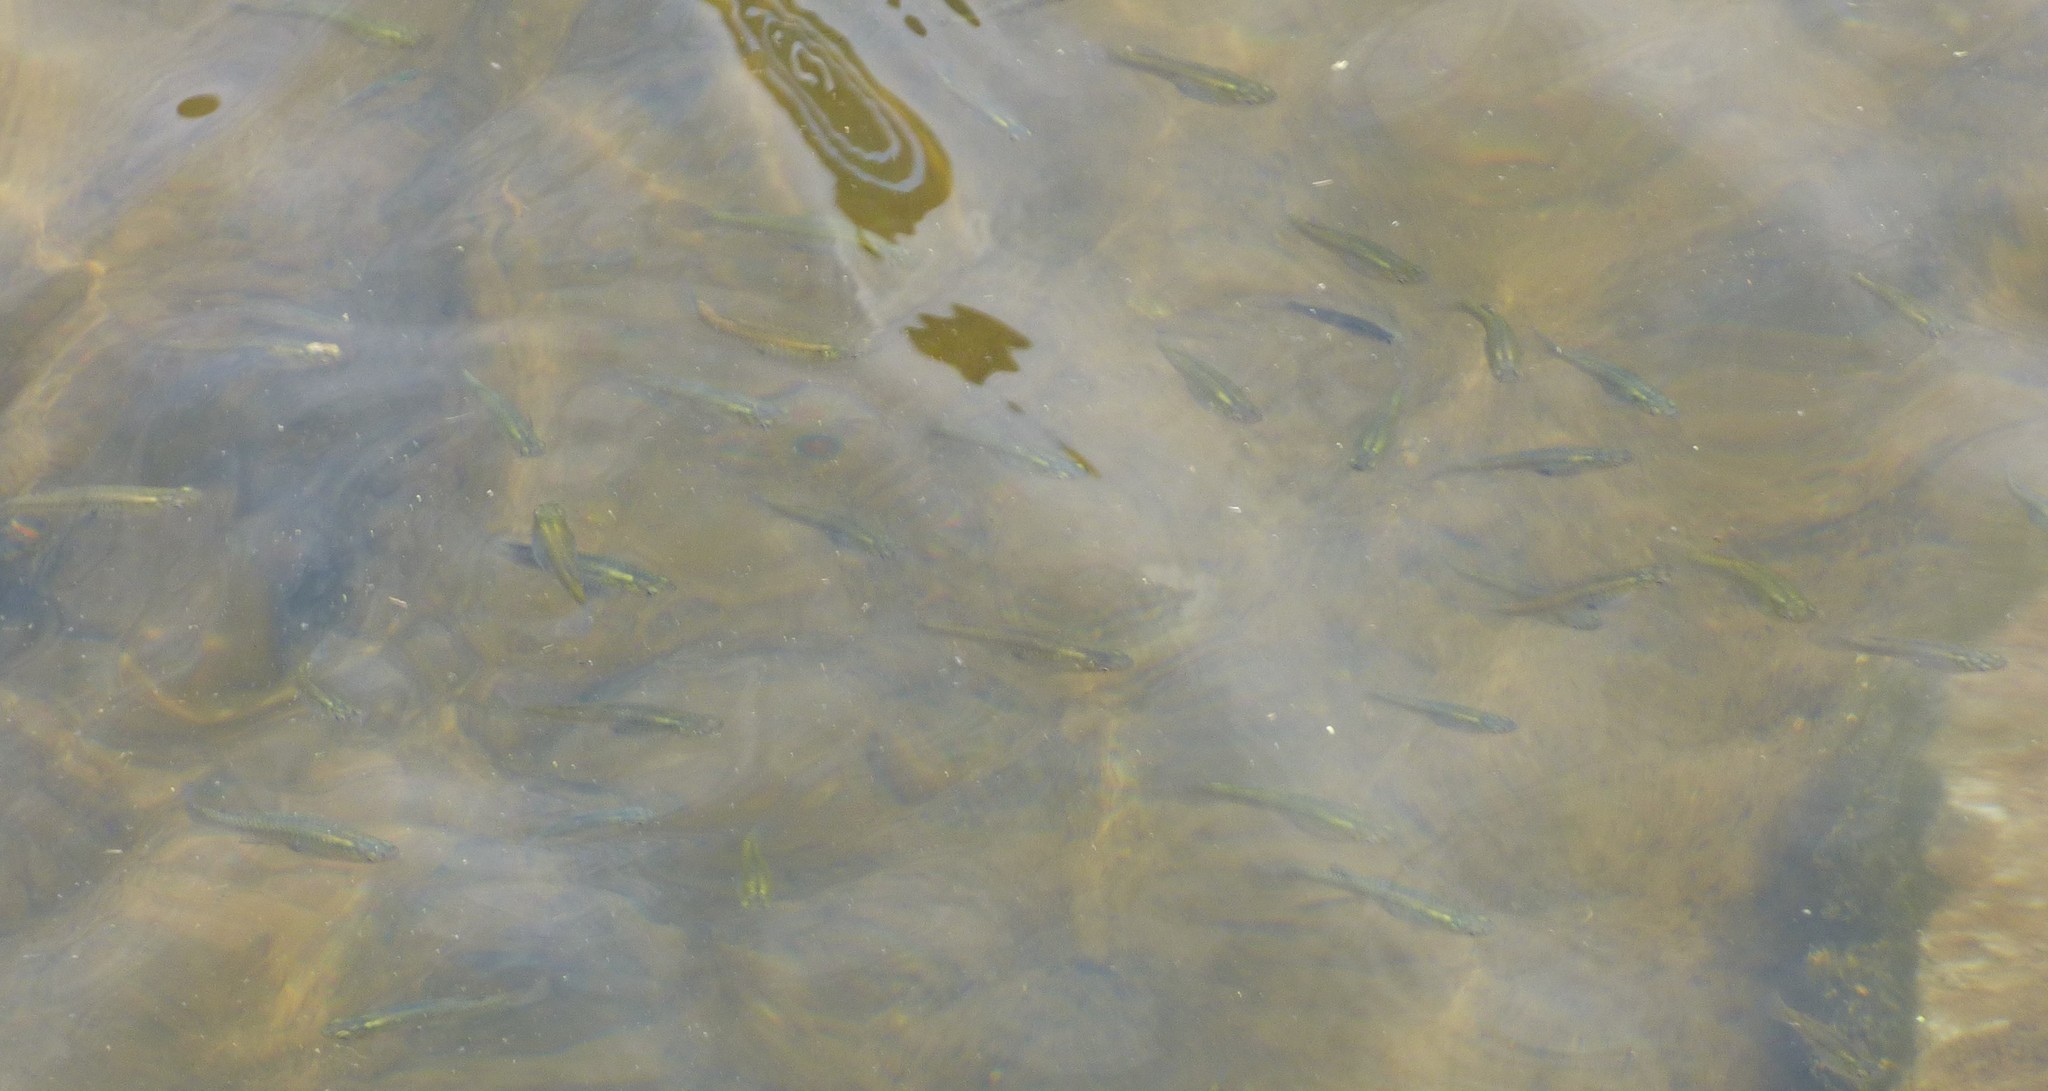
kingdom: Animalia
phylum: Chordata
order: Cyprinodontiformes
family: Poeciliidae
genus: Gambusia
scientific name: Gambusia holbrooki
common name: Eastern mosquitofish
